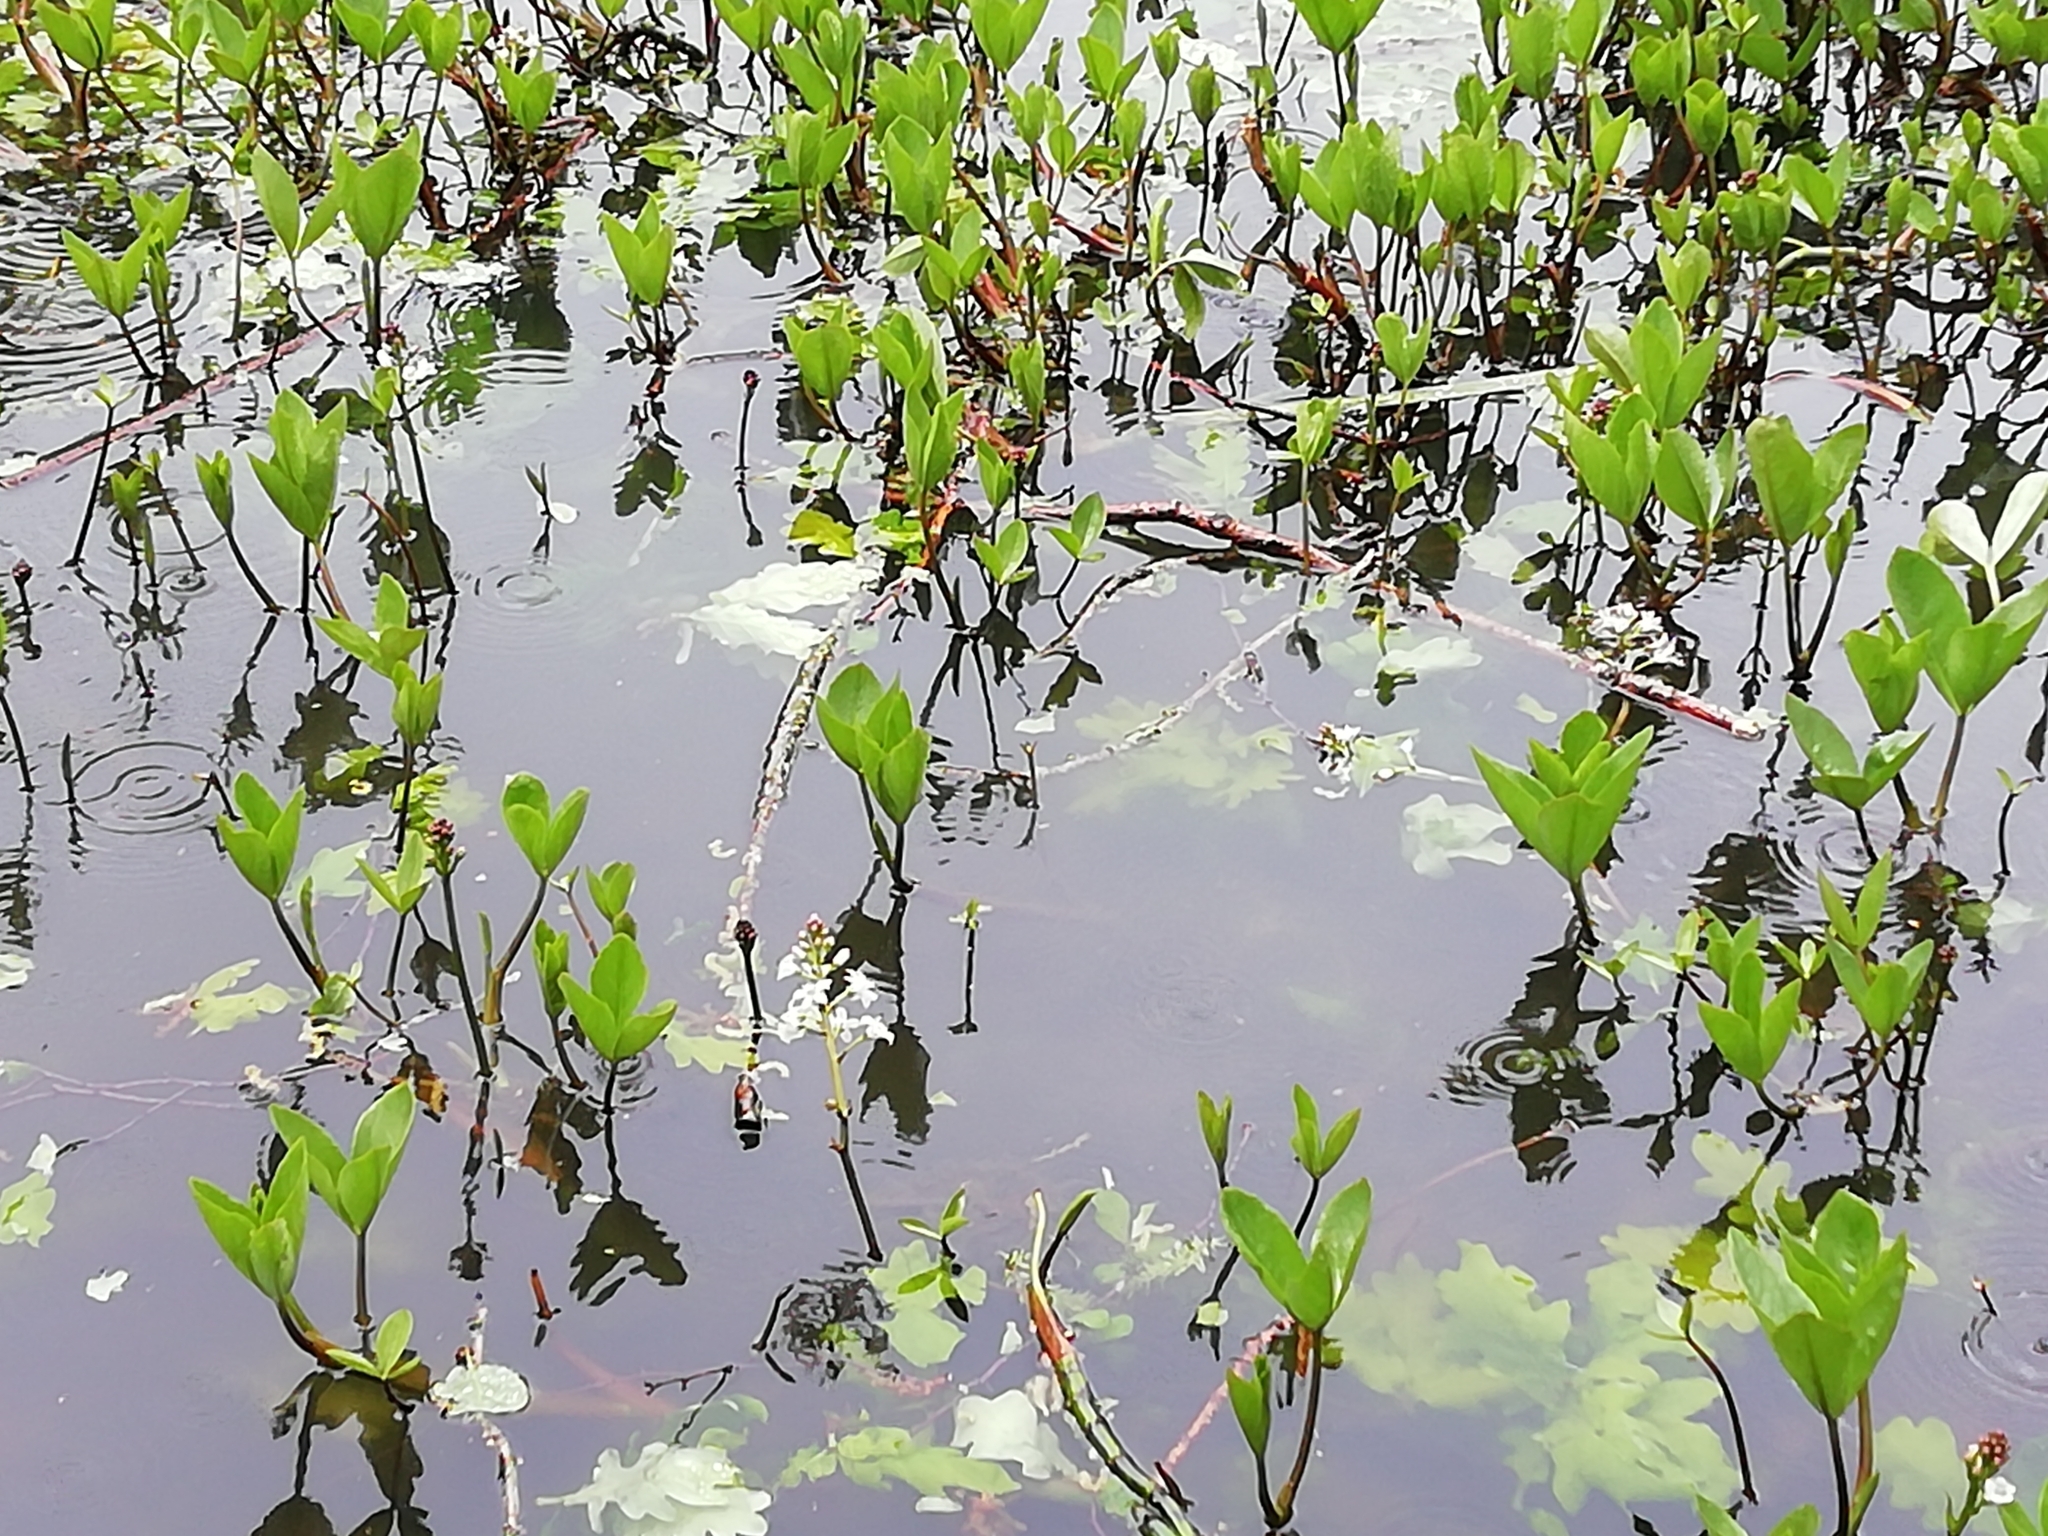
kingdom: Plantae
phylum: Tracheophyta
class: Magnoliopsida
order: Asterales
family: Menyanthaceae
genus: Menyanthes
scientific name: Menyanthes trifoliata
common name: Bogbean
